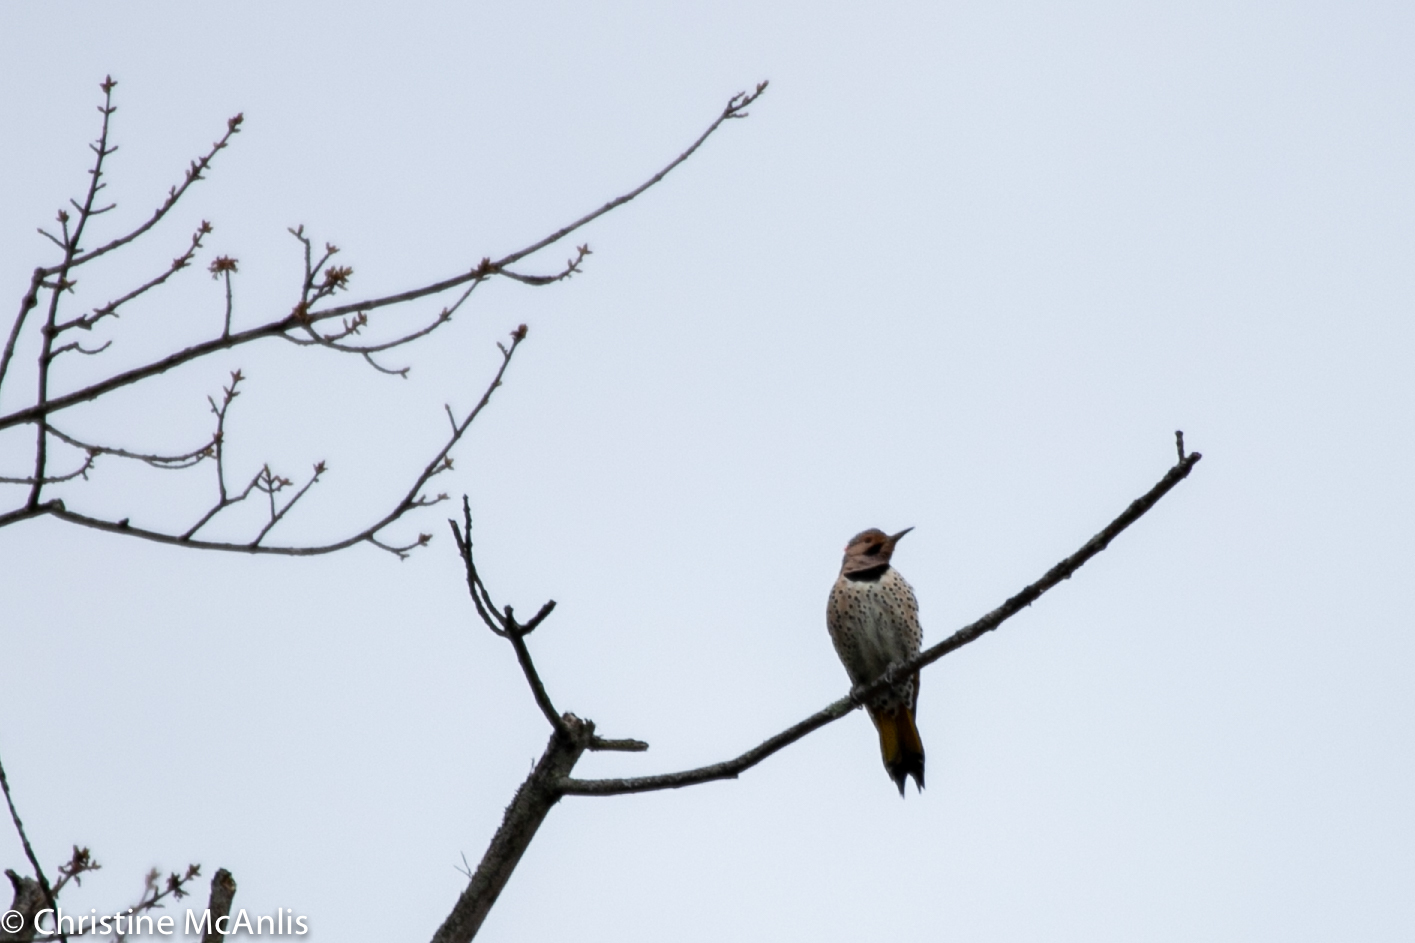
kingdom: Animalia
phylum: Chordata
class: Aves
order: Piciformes
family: Picidae
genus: Colaptes
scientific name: Colaptes auratus
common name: Northern flicker
